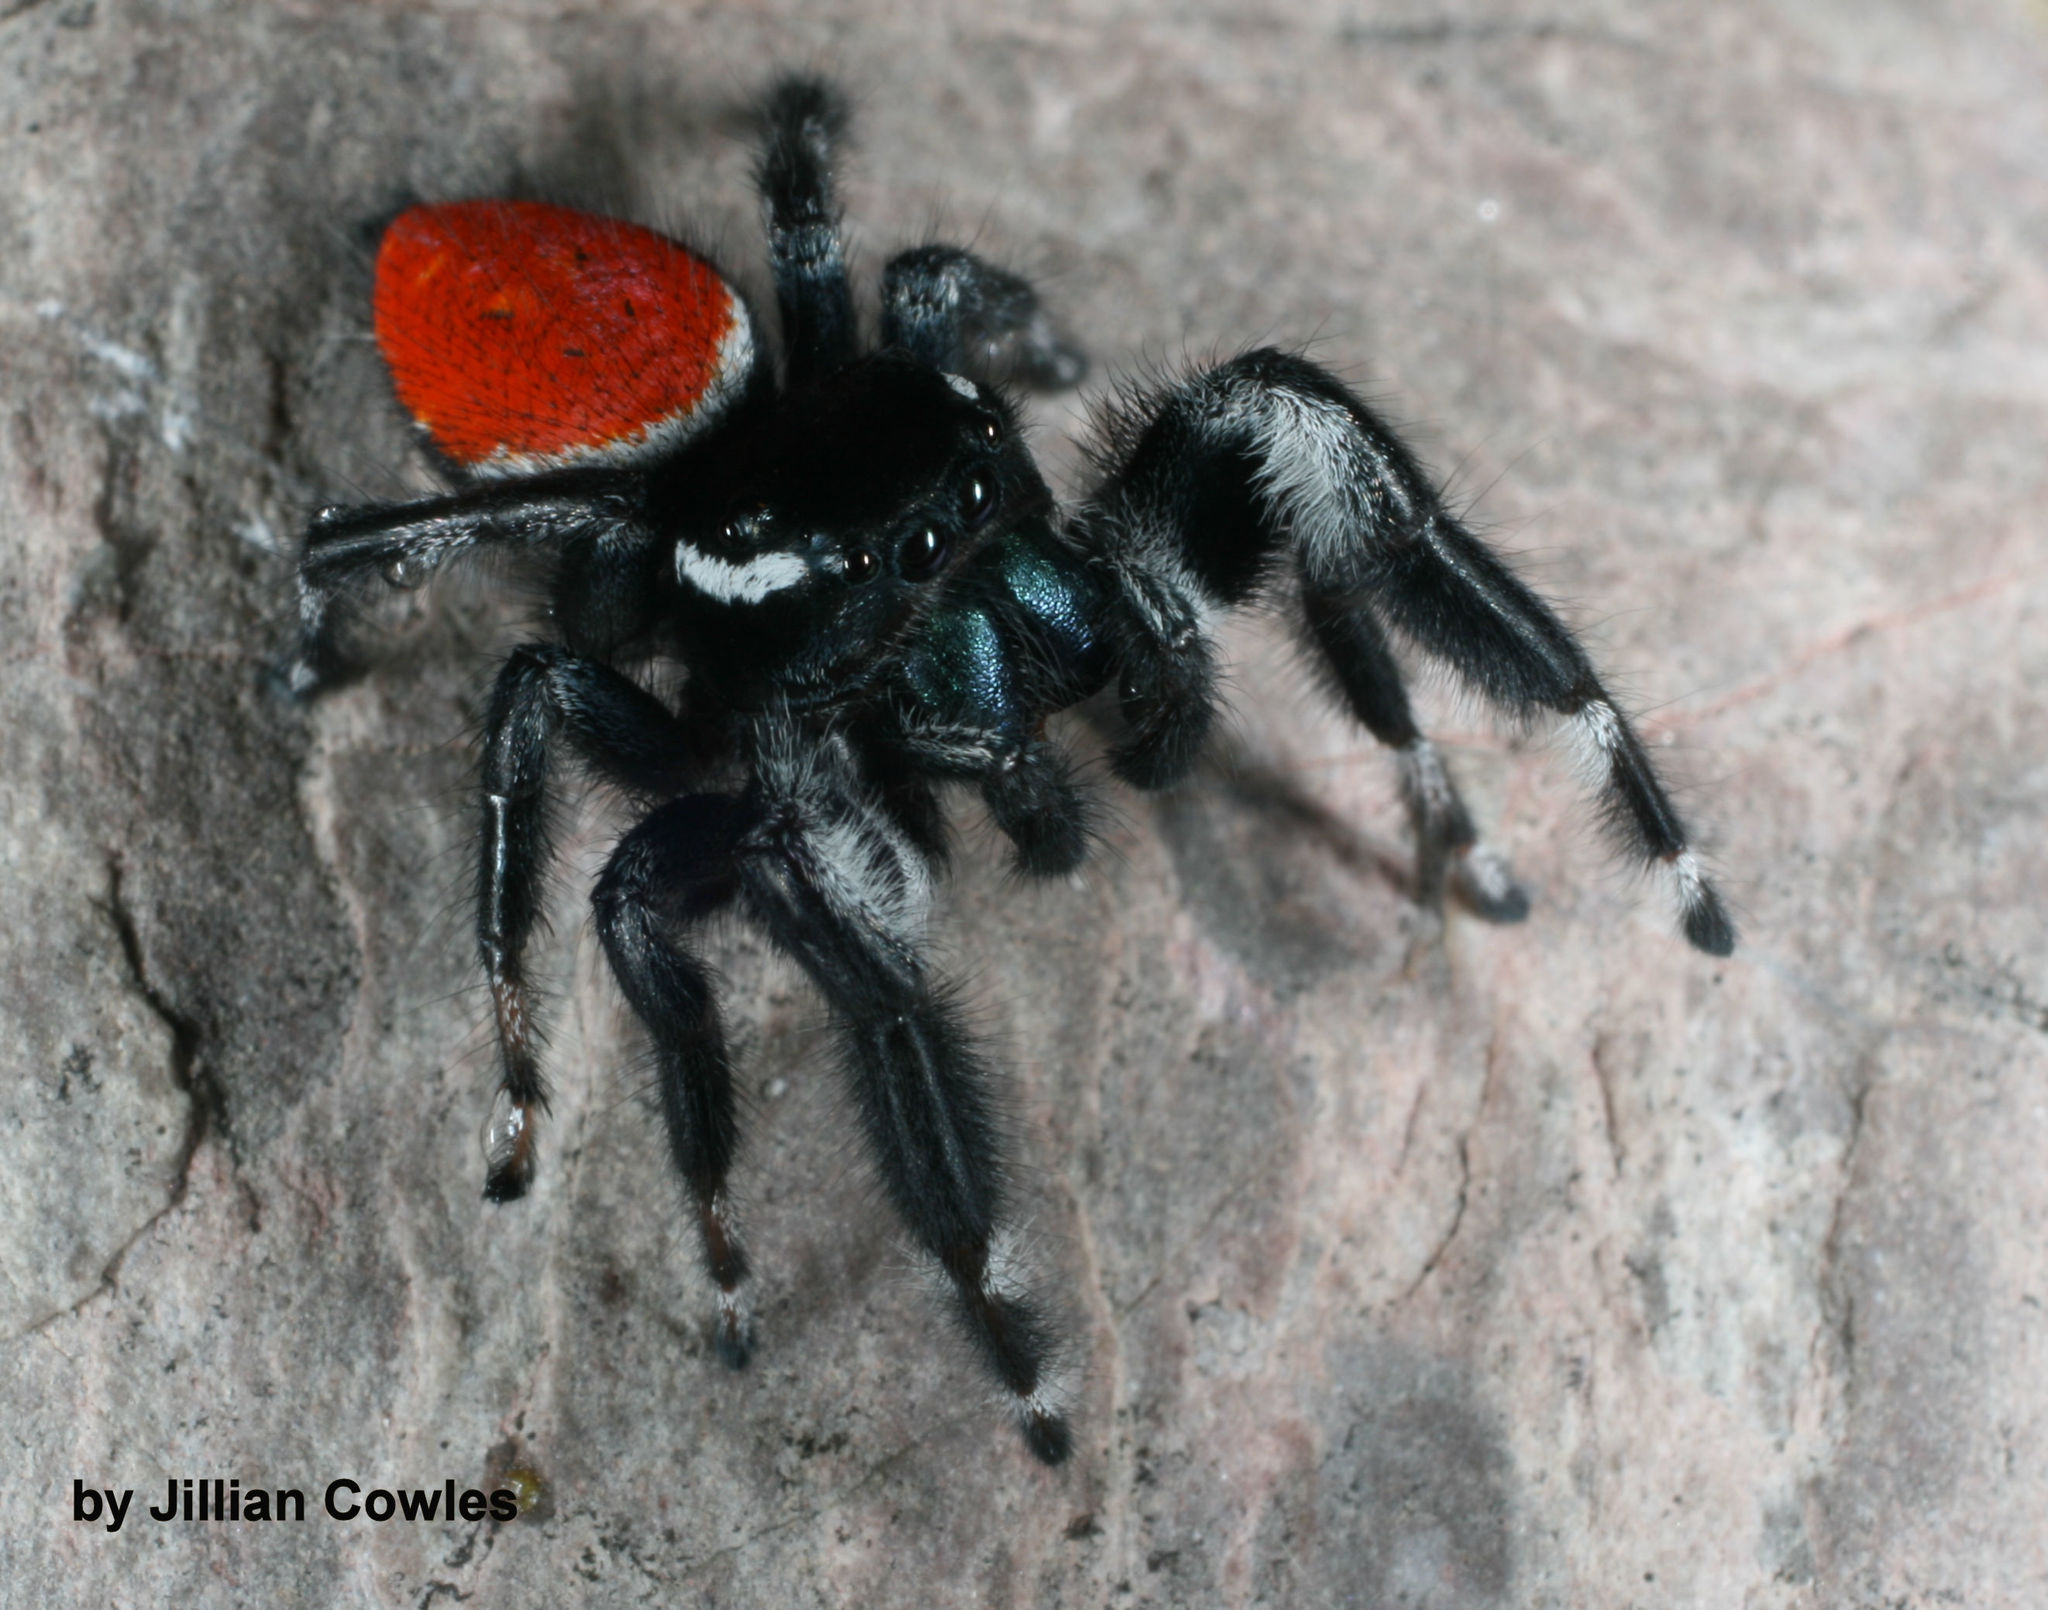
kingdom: Animalia
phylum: Arthropoda
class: Arachnida
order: Araneae
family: Salticidae
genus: Phidippus
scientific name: Phidippus carneus
